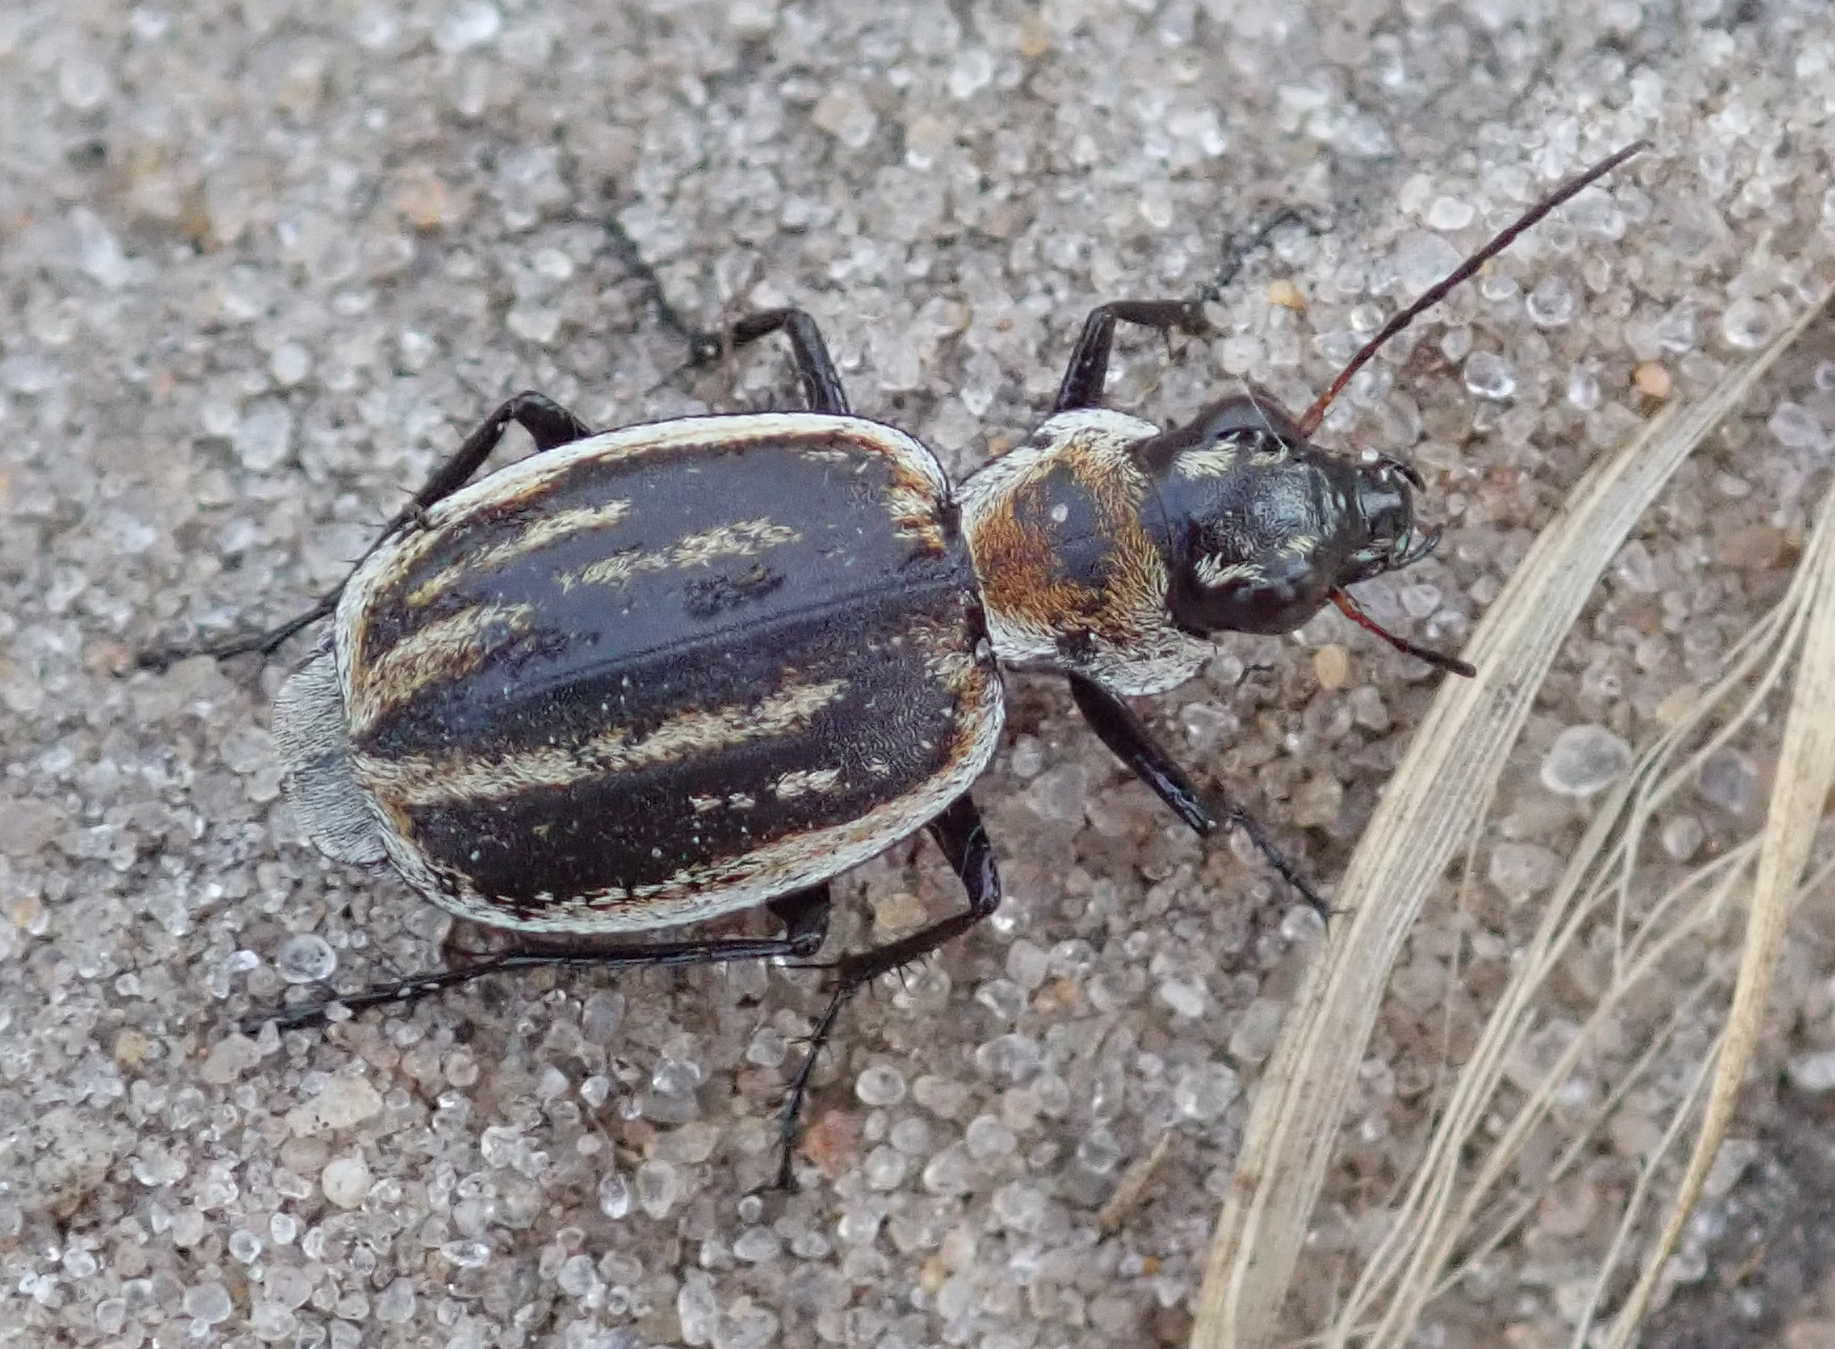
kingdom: Animalia
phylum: Arthropoda
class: Insecta
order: Coleoptera
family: Carabidae
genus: Graphipterus
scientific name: Graphipterus dolosus
